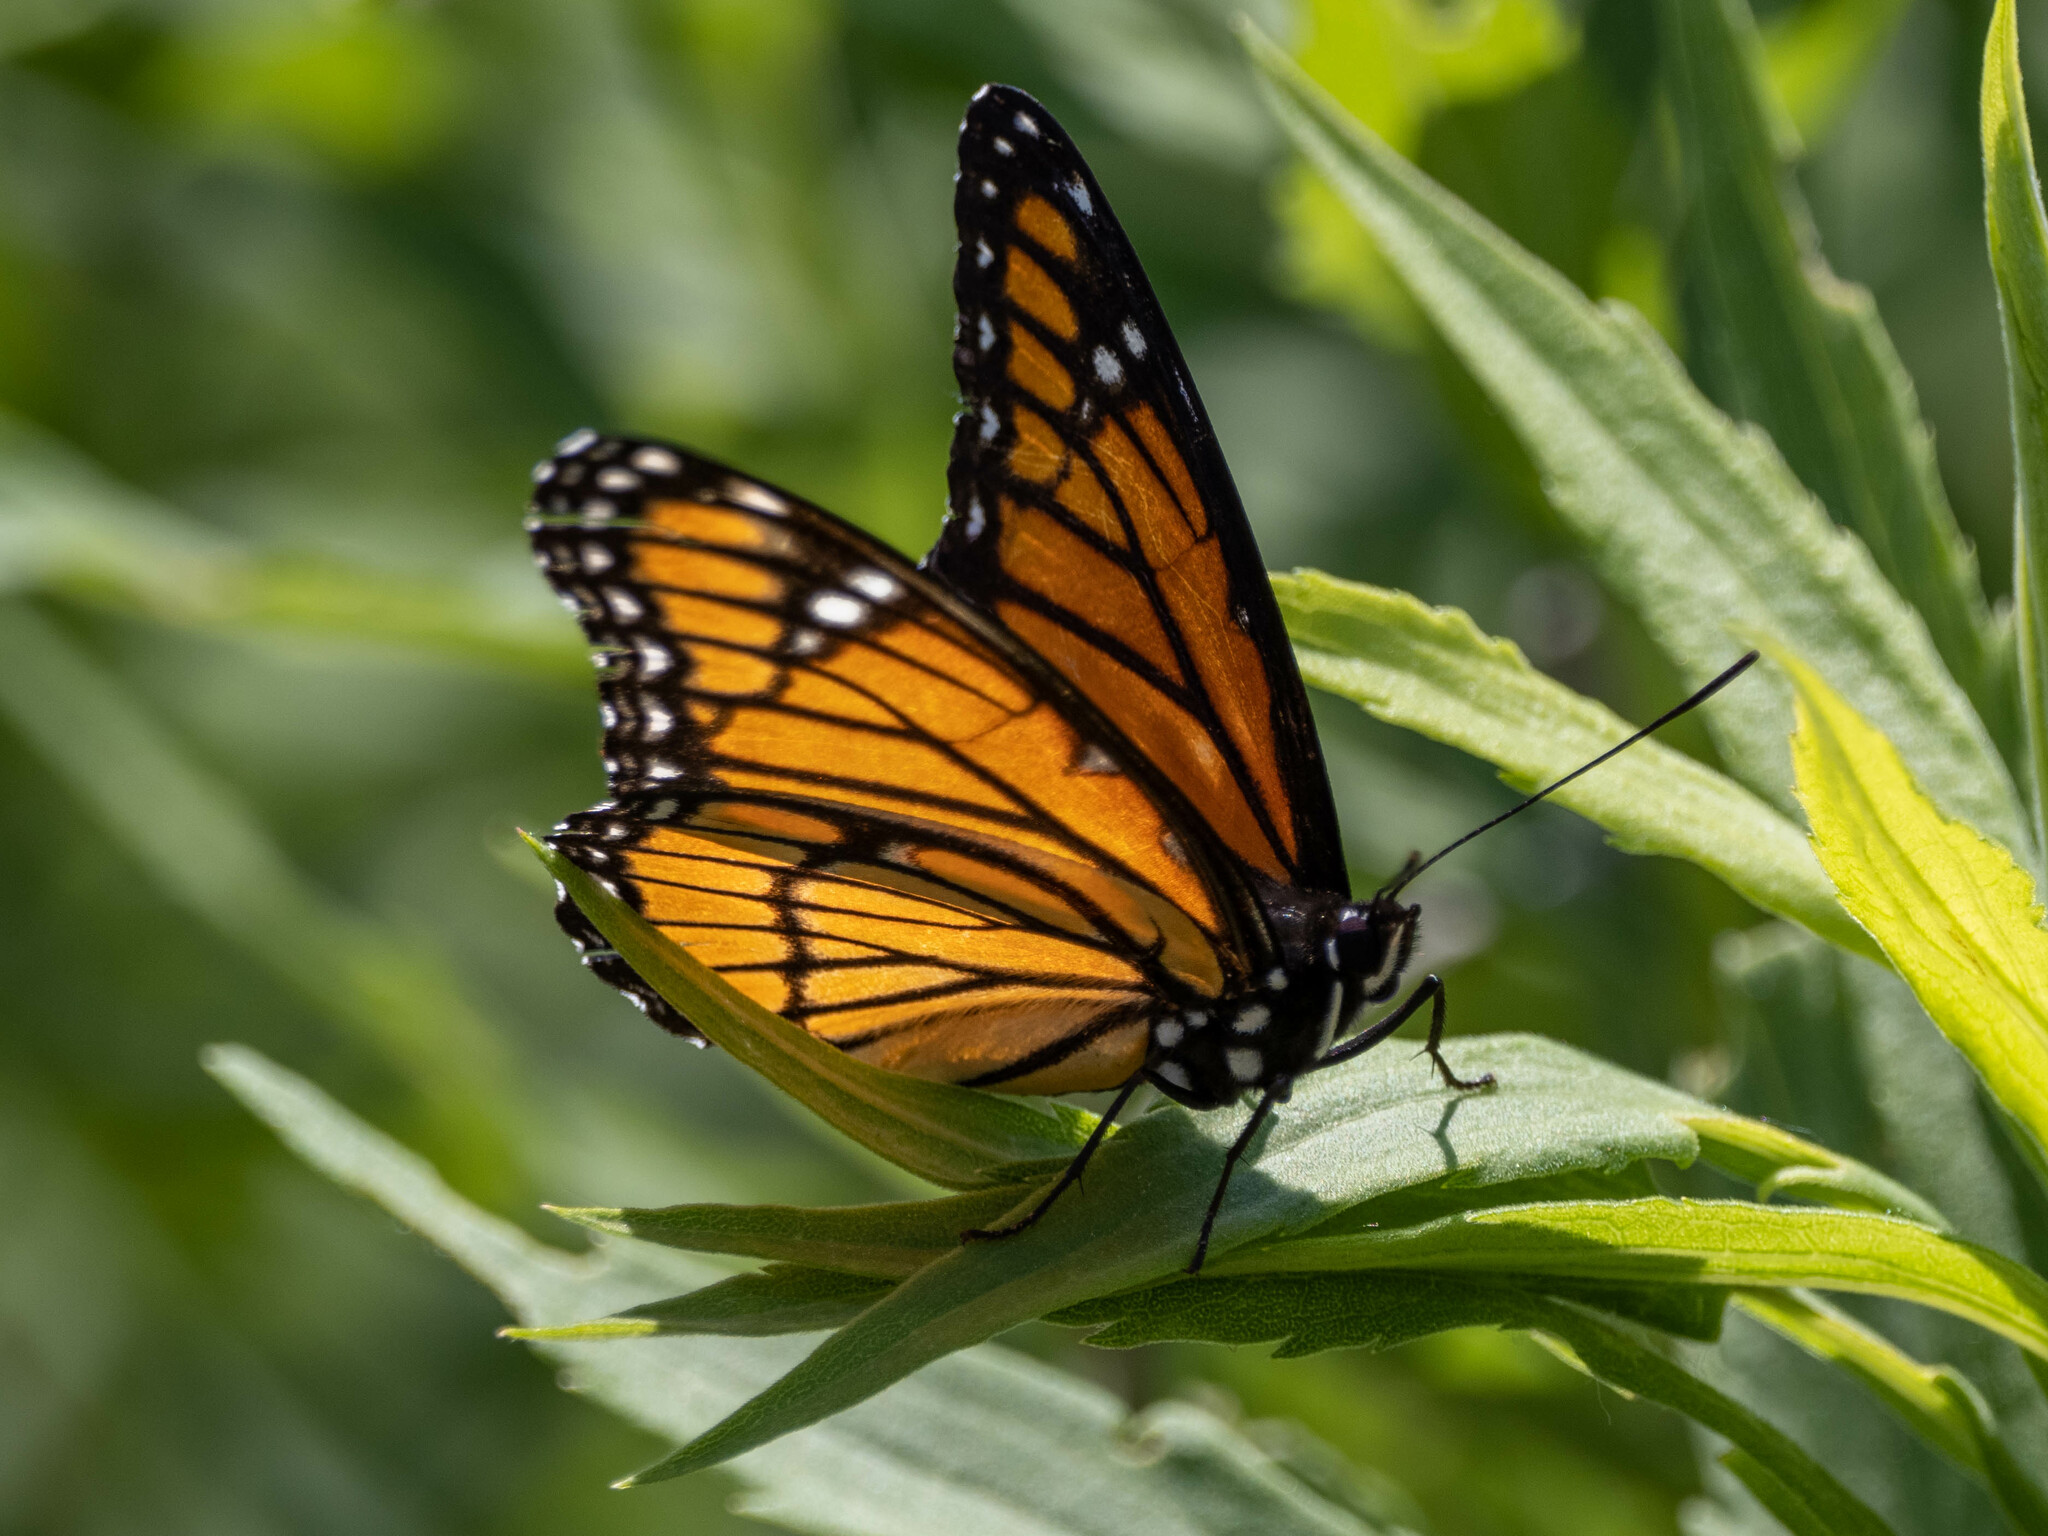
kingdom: Animalia
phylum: Arthropoda
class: Insecta
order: Lepidoptera
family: Nymphalidae
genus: Limenitis
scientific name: Limenitis archippus
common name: Viceroy
